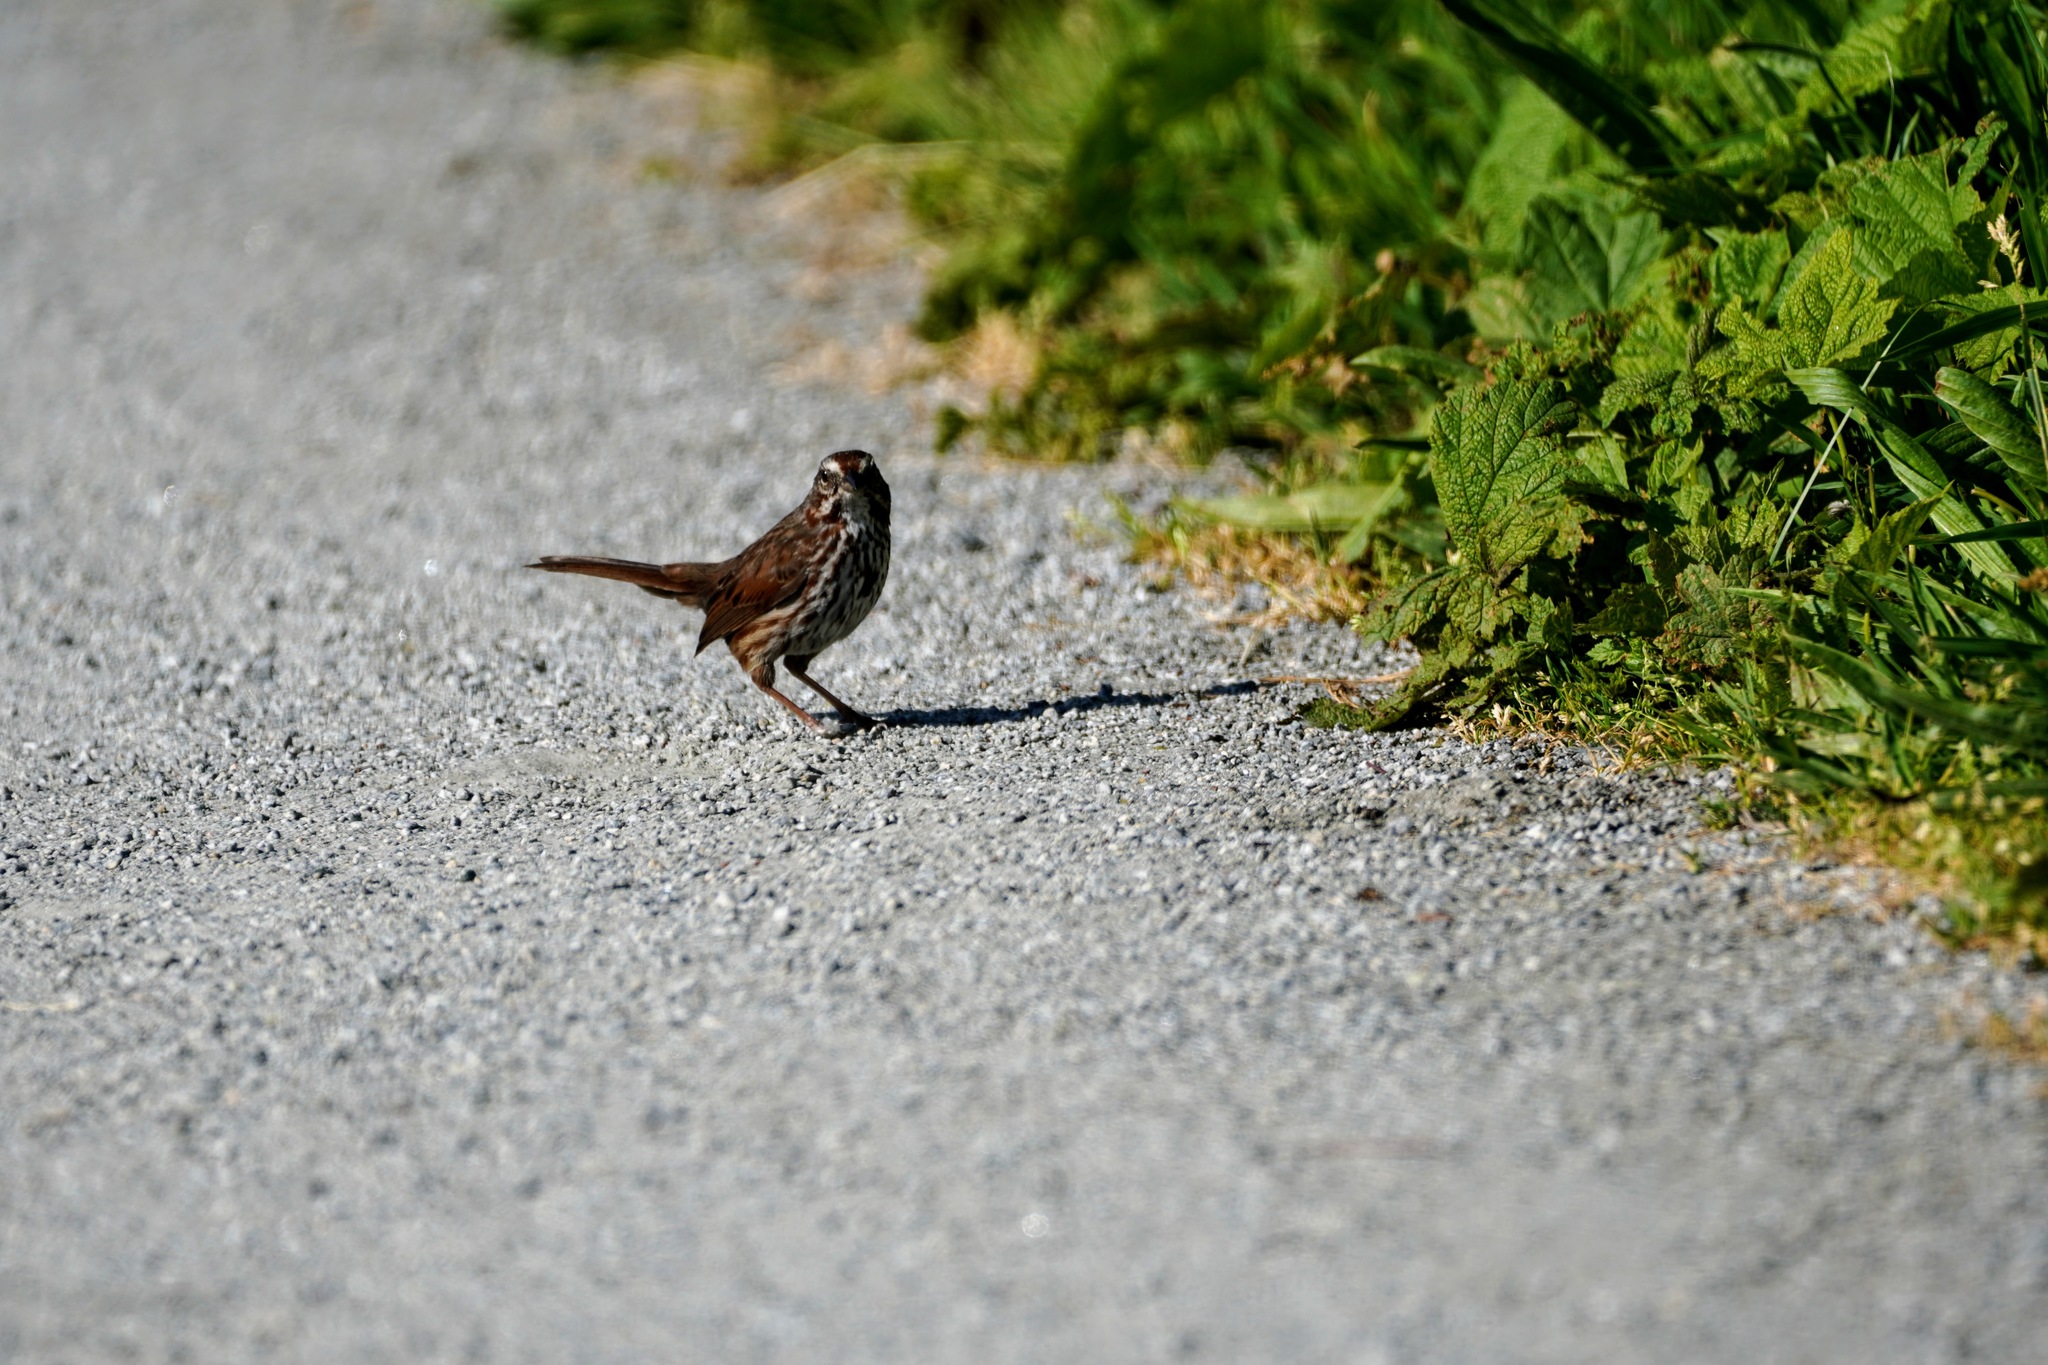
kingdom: Animalia
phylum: Chordata
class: Aves
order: Passeriformes
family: Passerellidae
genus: Melospiza
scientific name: Melospiza melodia
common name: Song sparrow
